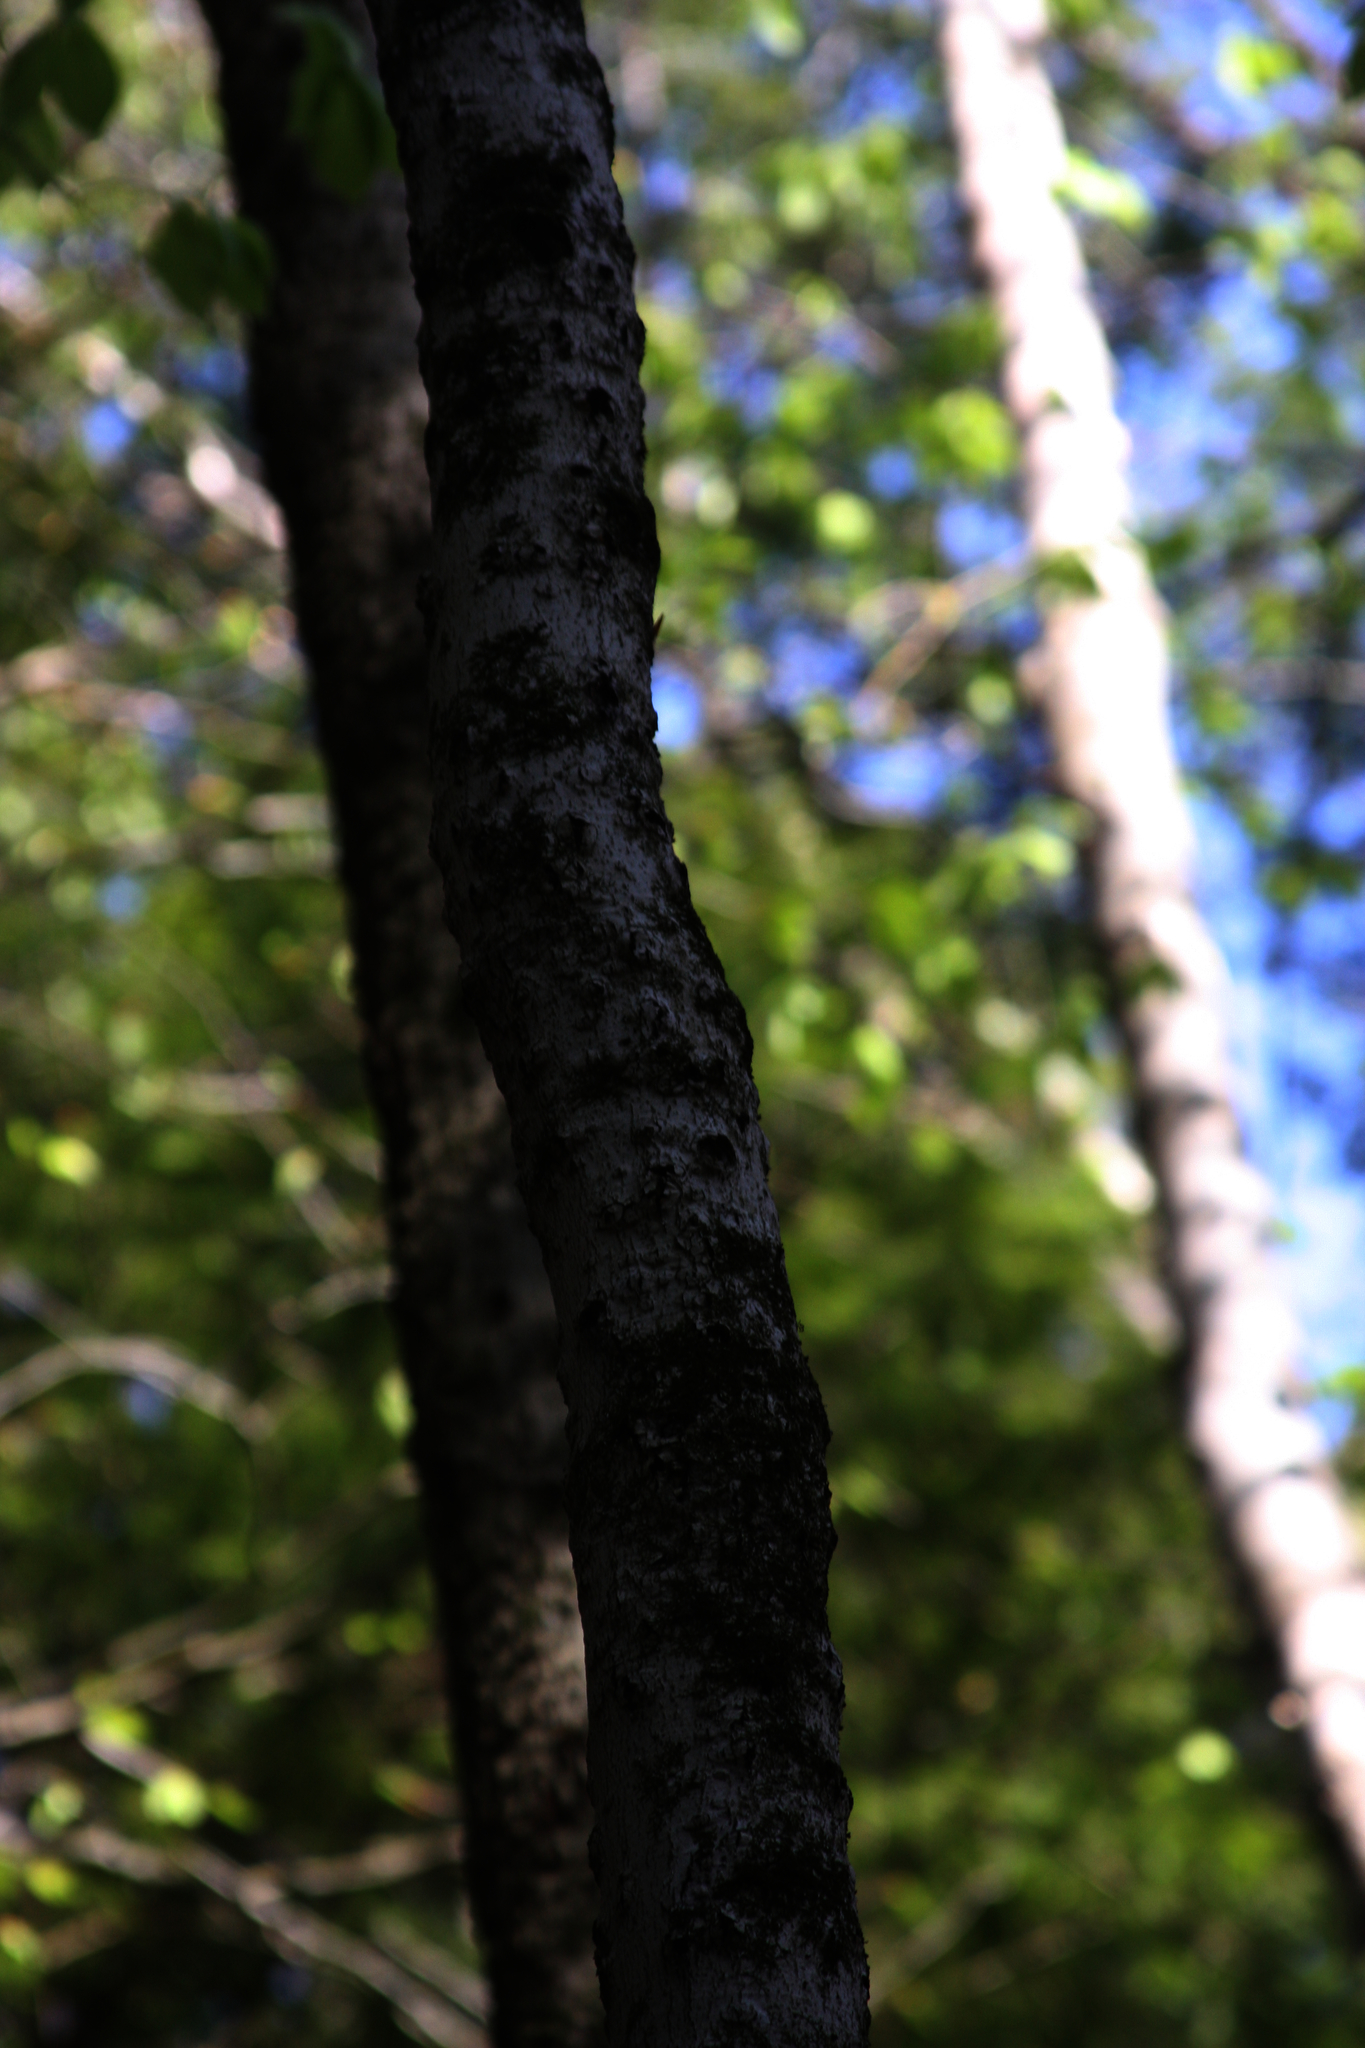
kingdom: Plantae
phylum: Tracheophyta
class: Magnoliopsida
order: Fagales
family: Fagaceae
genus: Fagus
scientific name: Fagus grandifolia
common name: American beech
